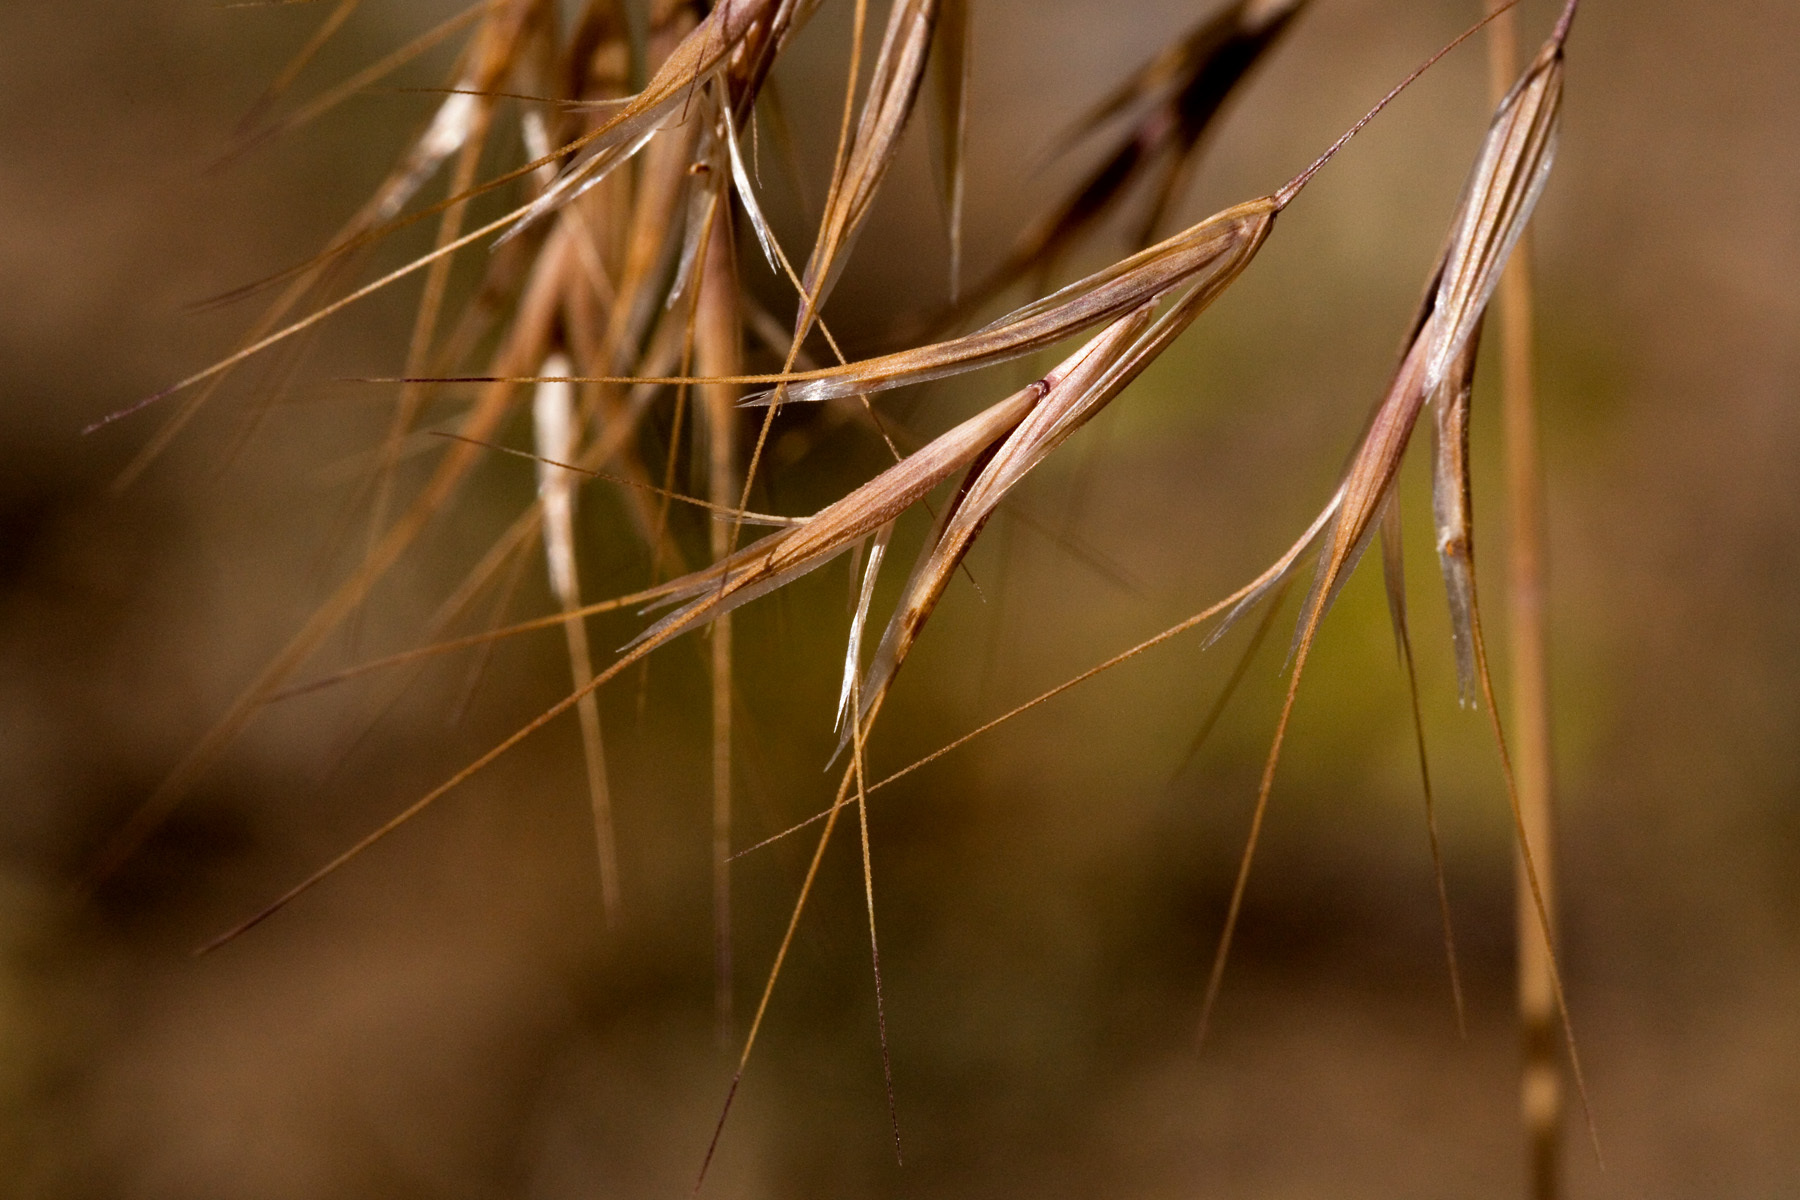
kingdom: Plantae
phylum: Tracheophyta
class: Liliopsida
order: Poales
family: Poaceae
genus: Bromus
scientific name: Bromus tectorum
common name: Cheatgrass
